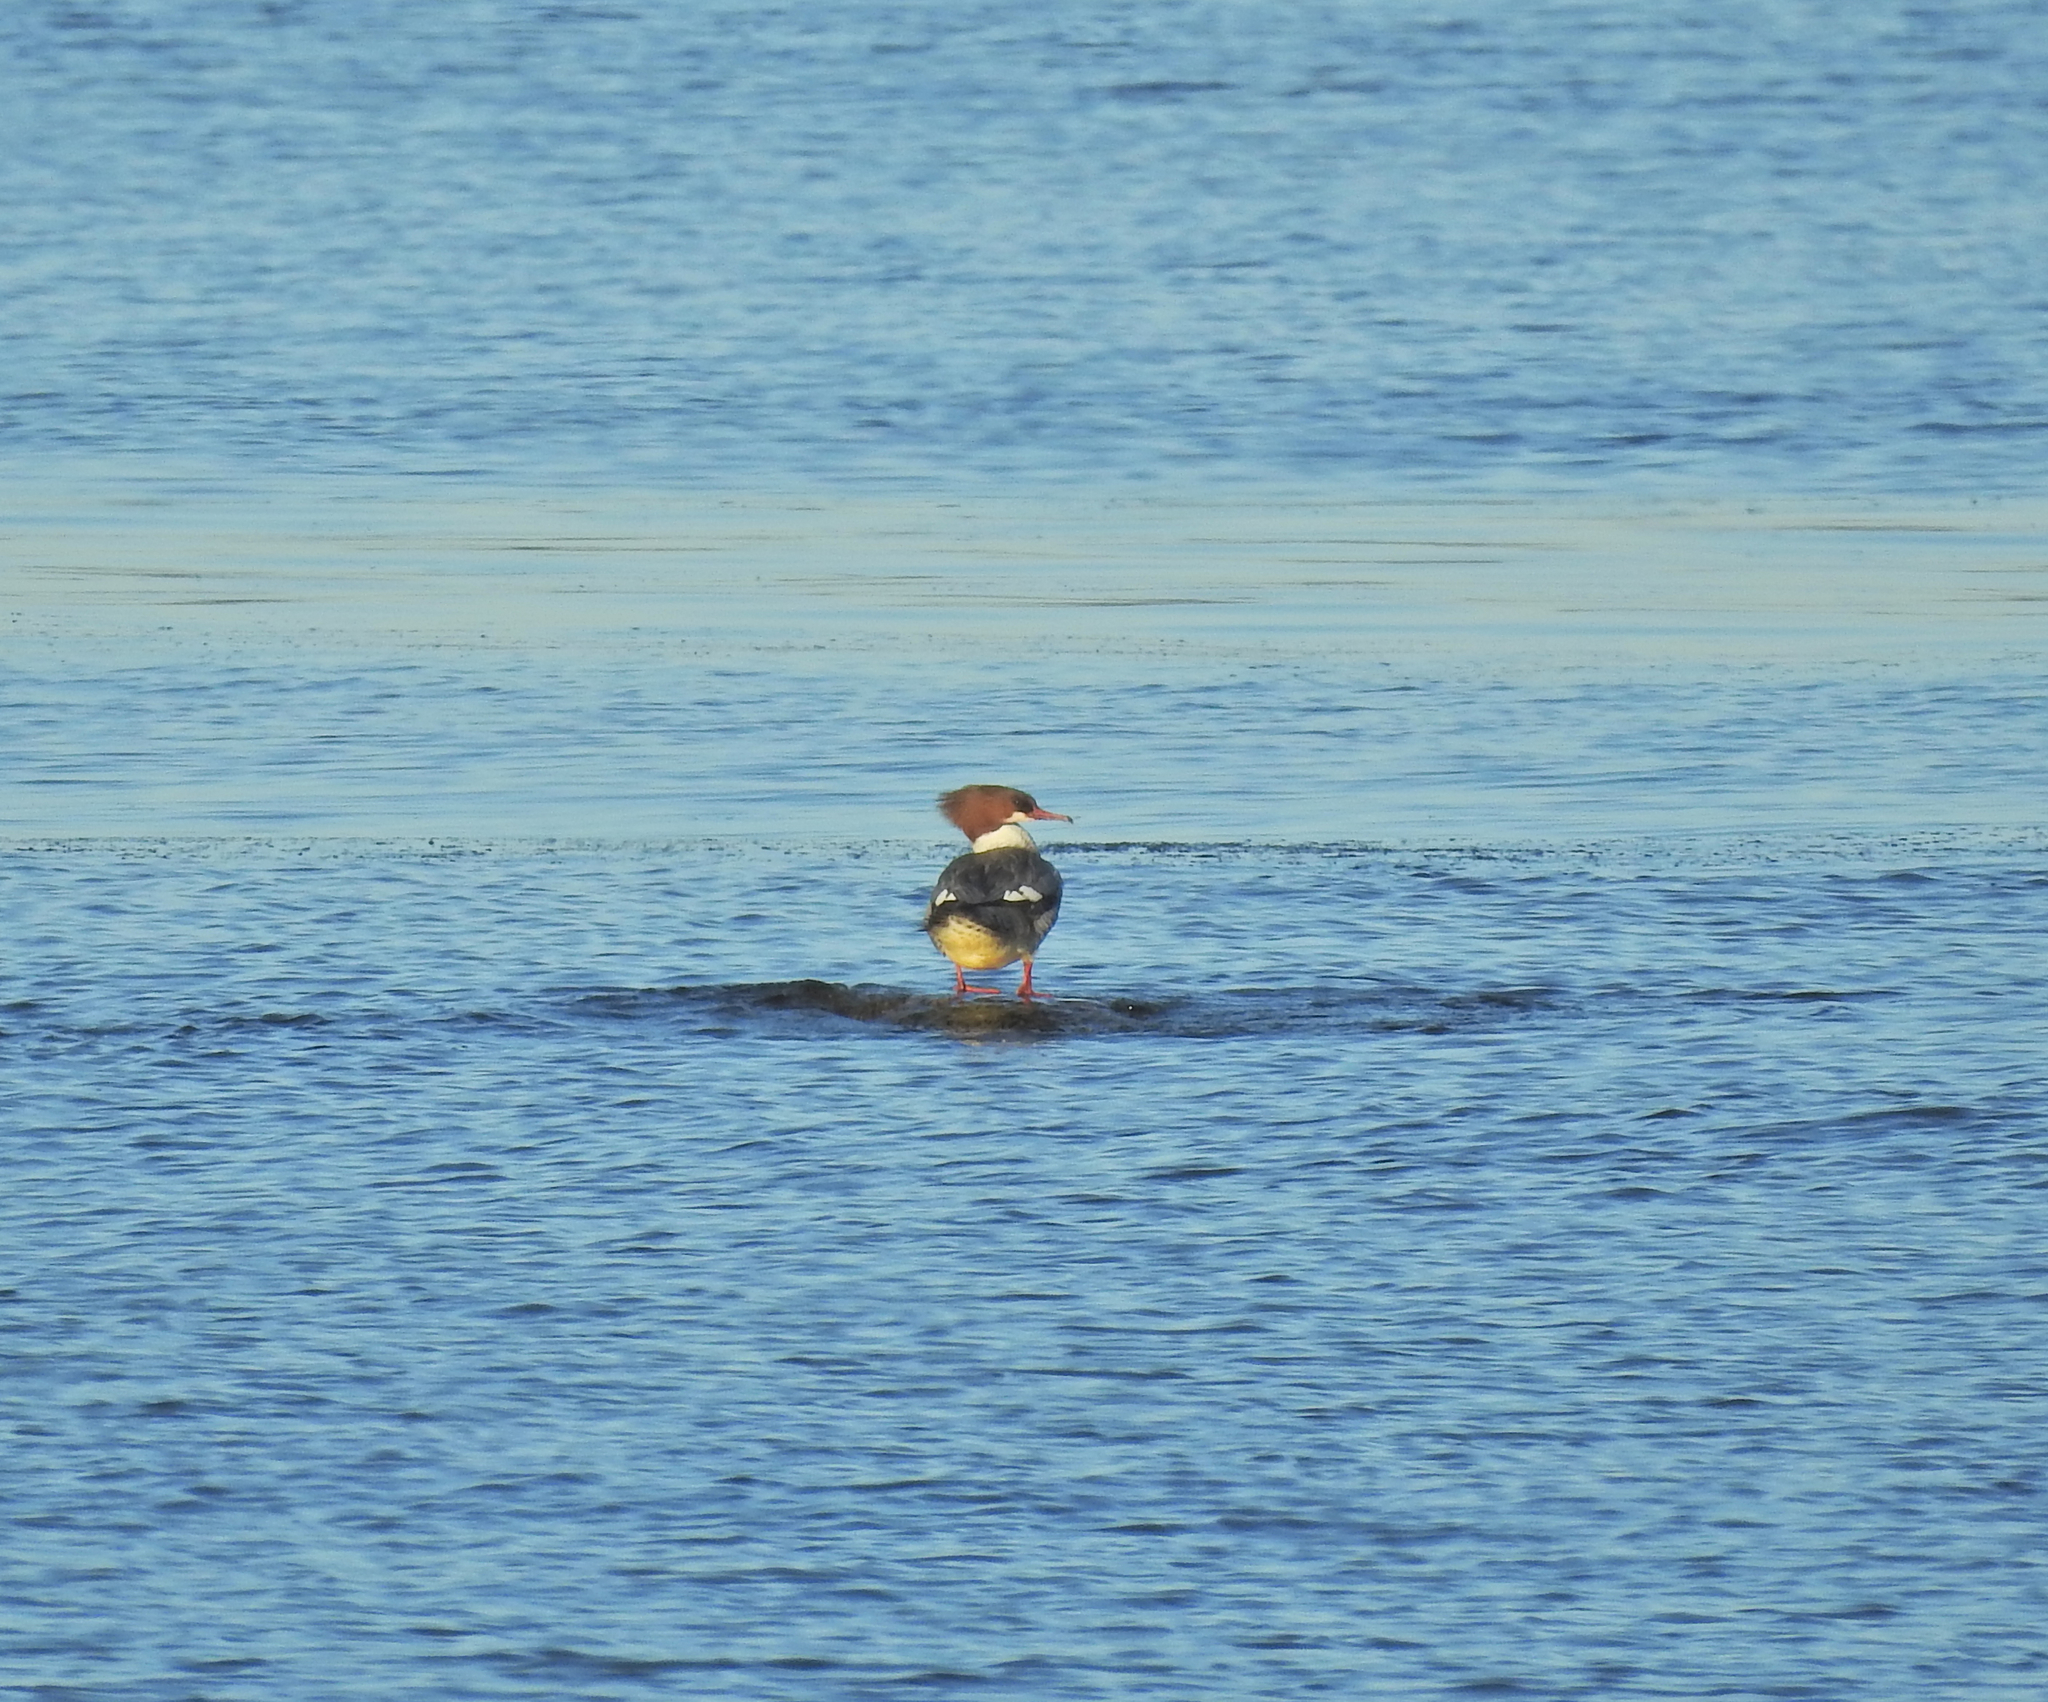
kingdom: Animalia
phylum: Chordata
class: Aves
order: Anseriformes
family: Anatidae
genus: Mergus
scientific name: Mergus merganser
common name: Common merganser
